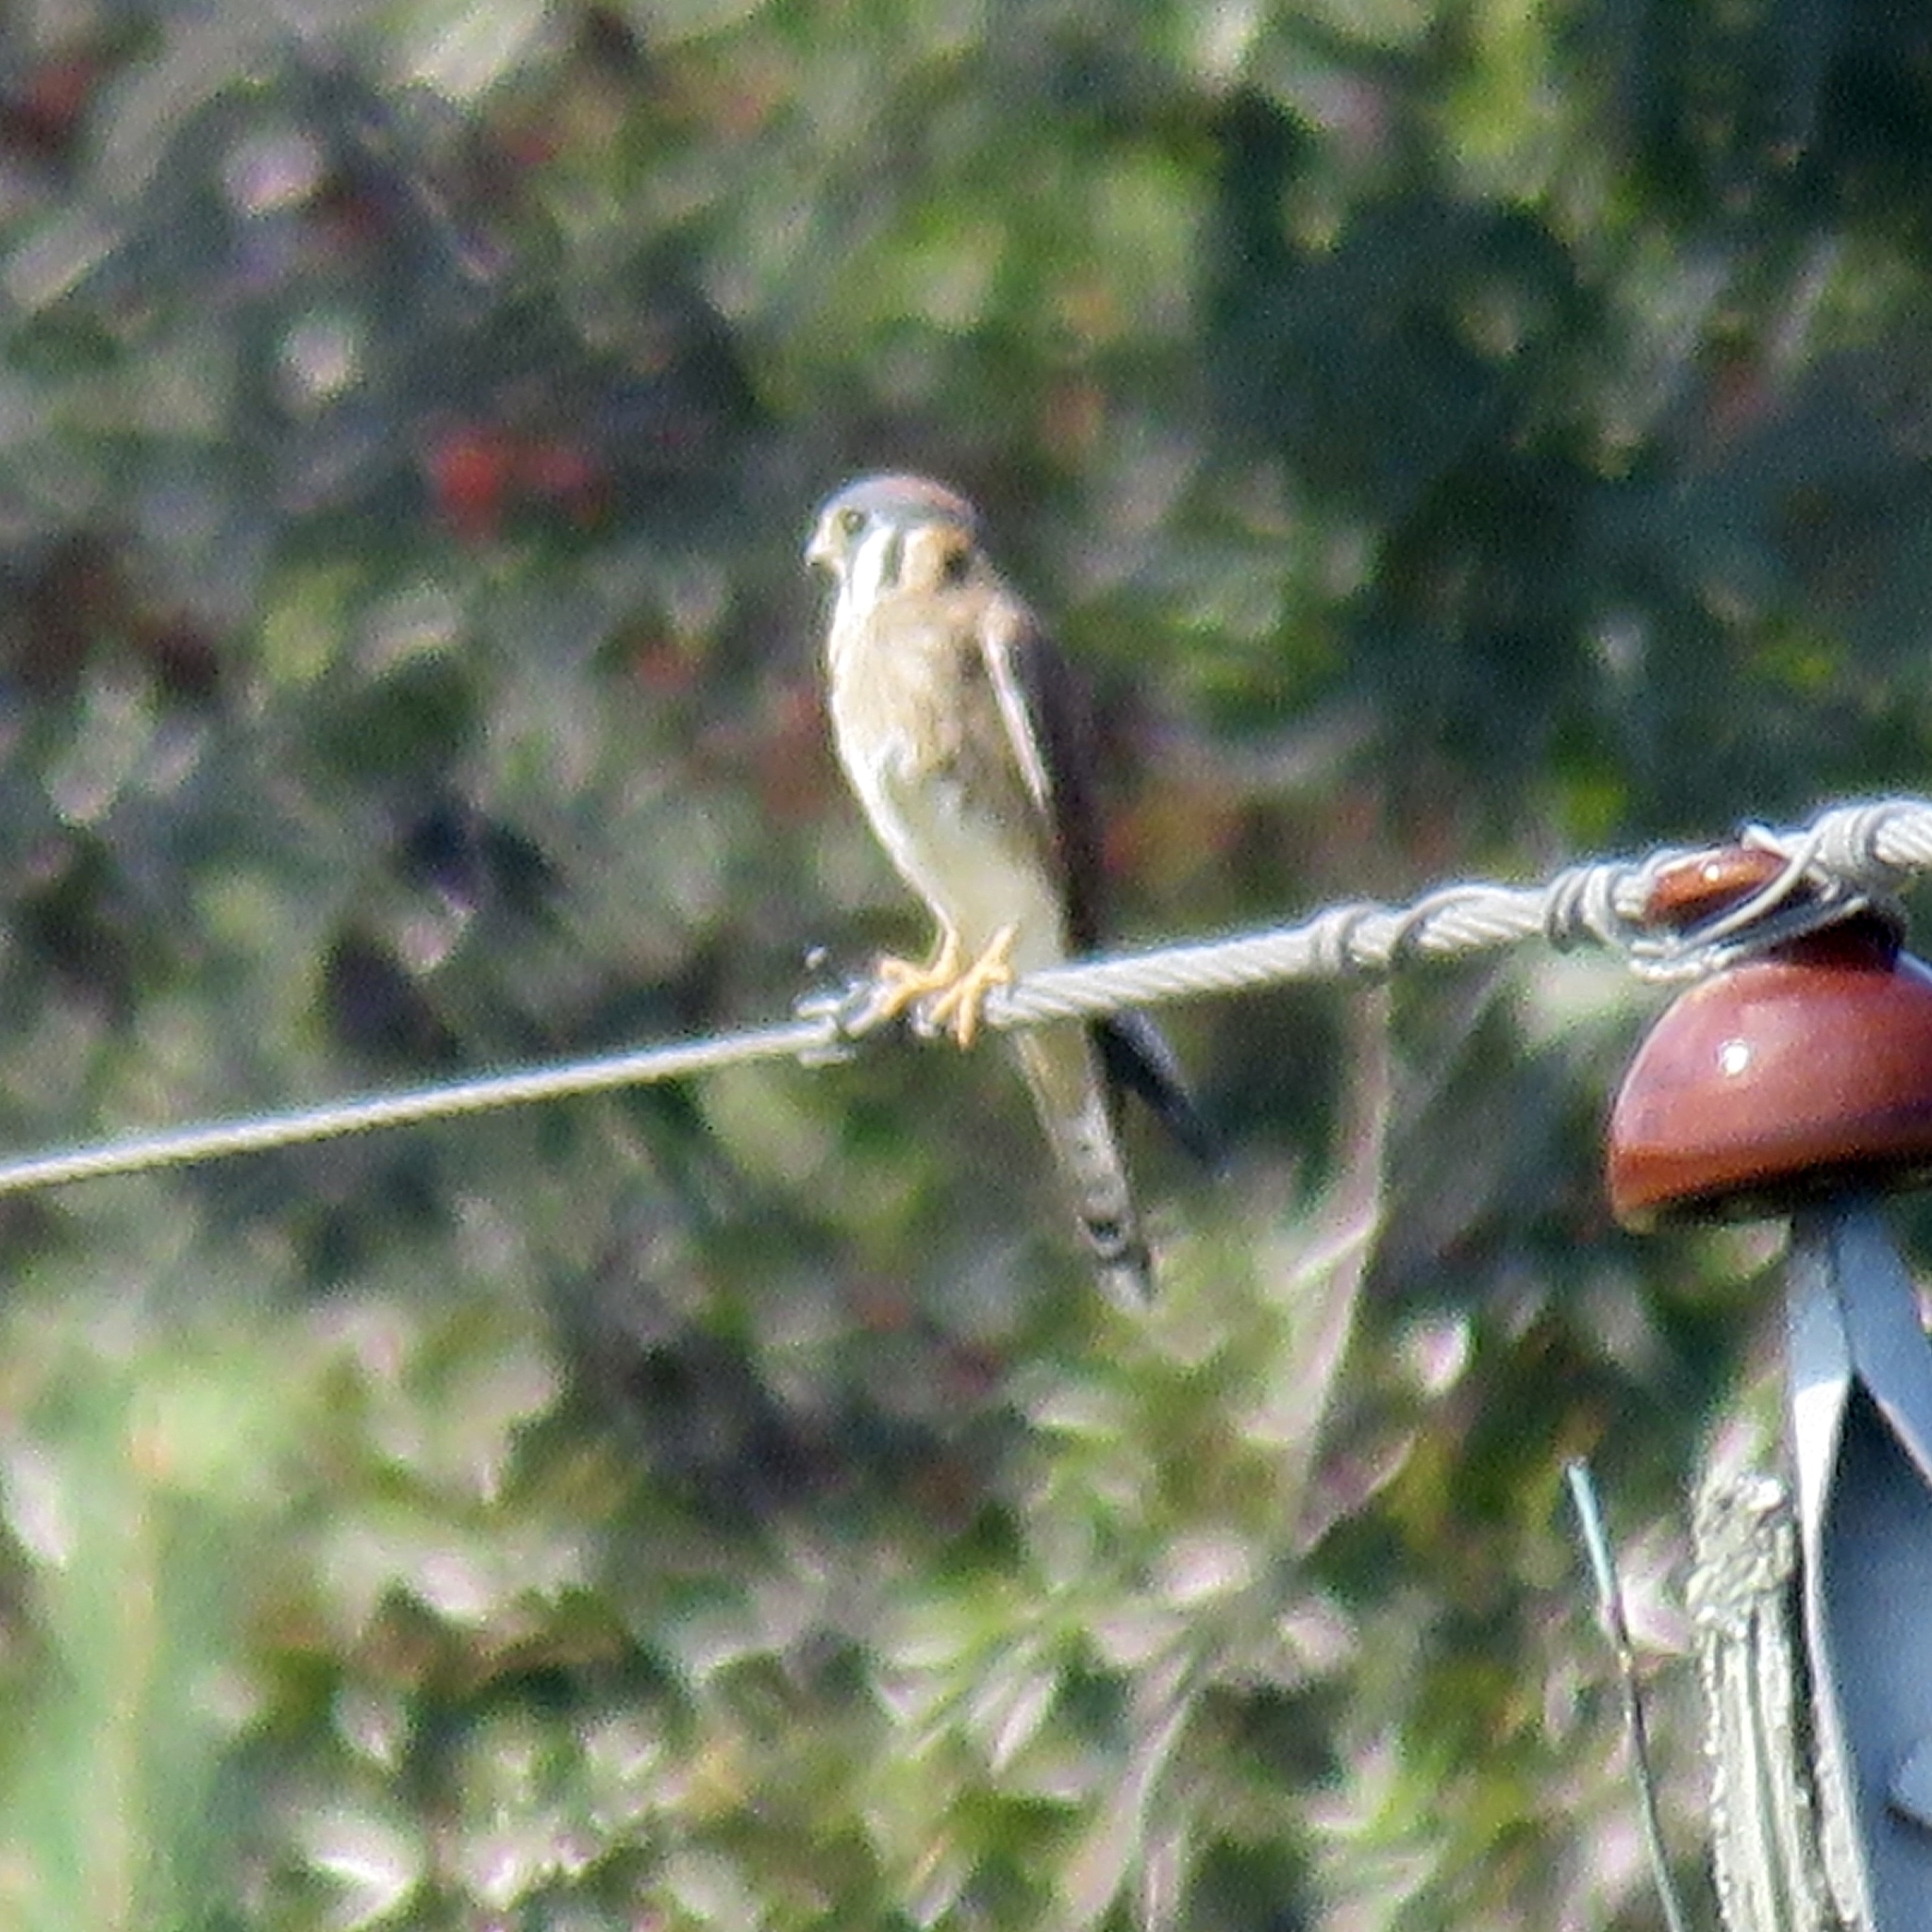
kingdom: Animalia
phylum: Chordata
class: Aves
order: Falconiformes
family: Falconidae
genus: Falco
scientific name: Falco sparverius
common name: American kestrel
